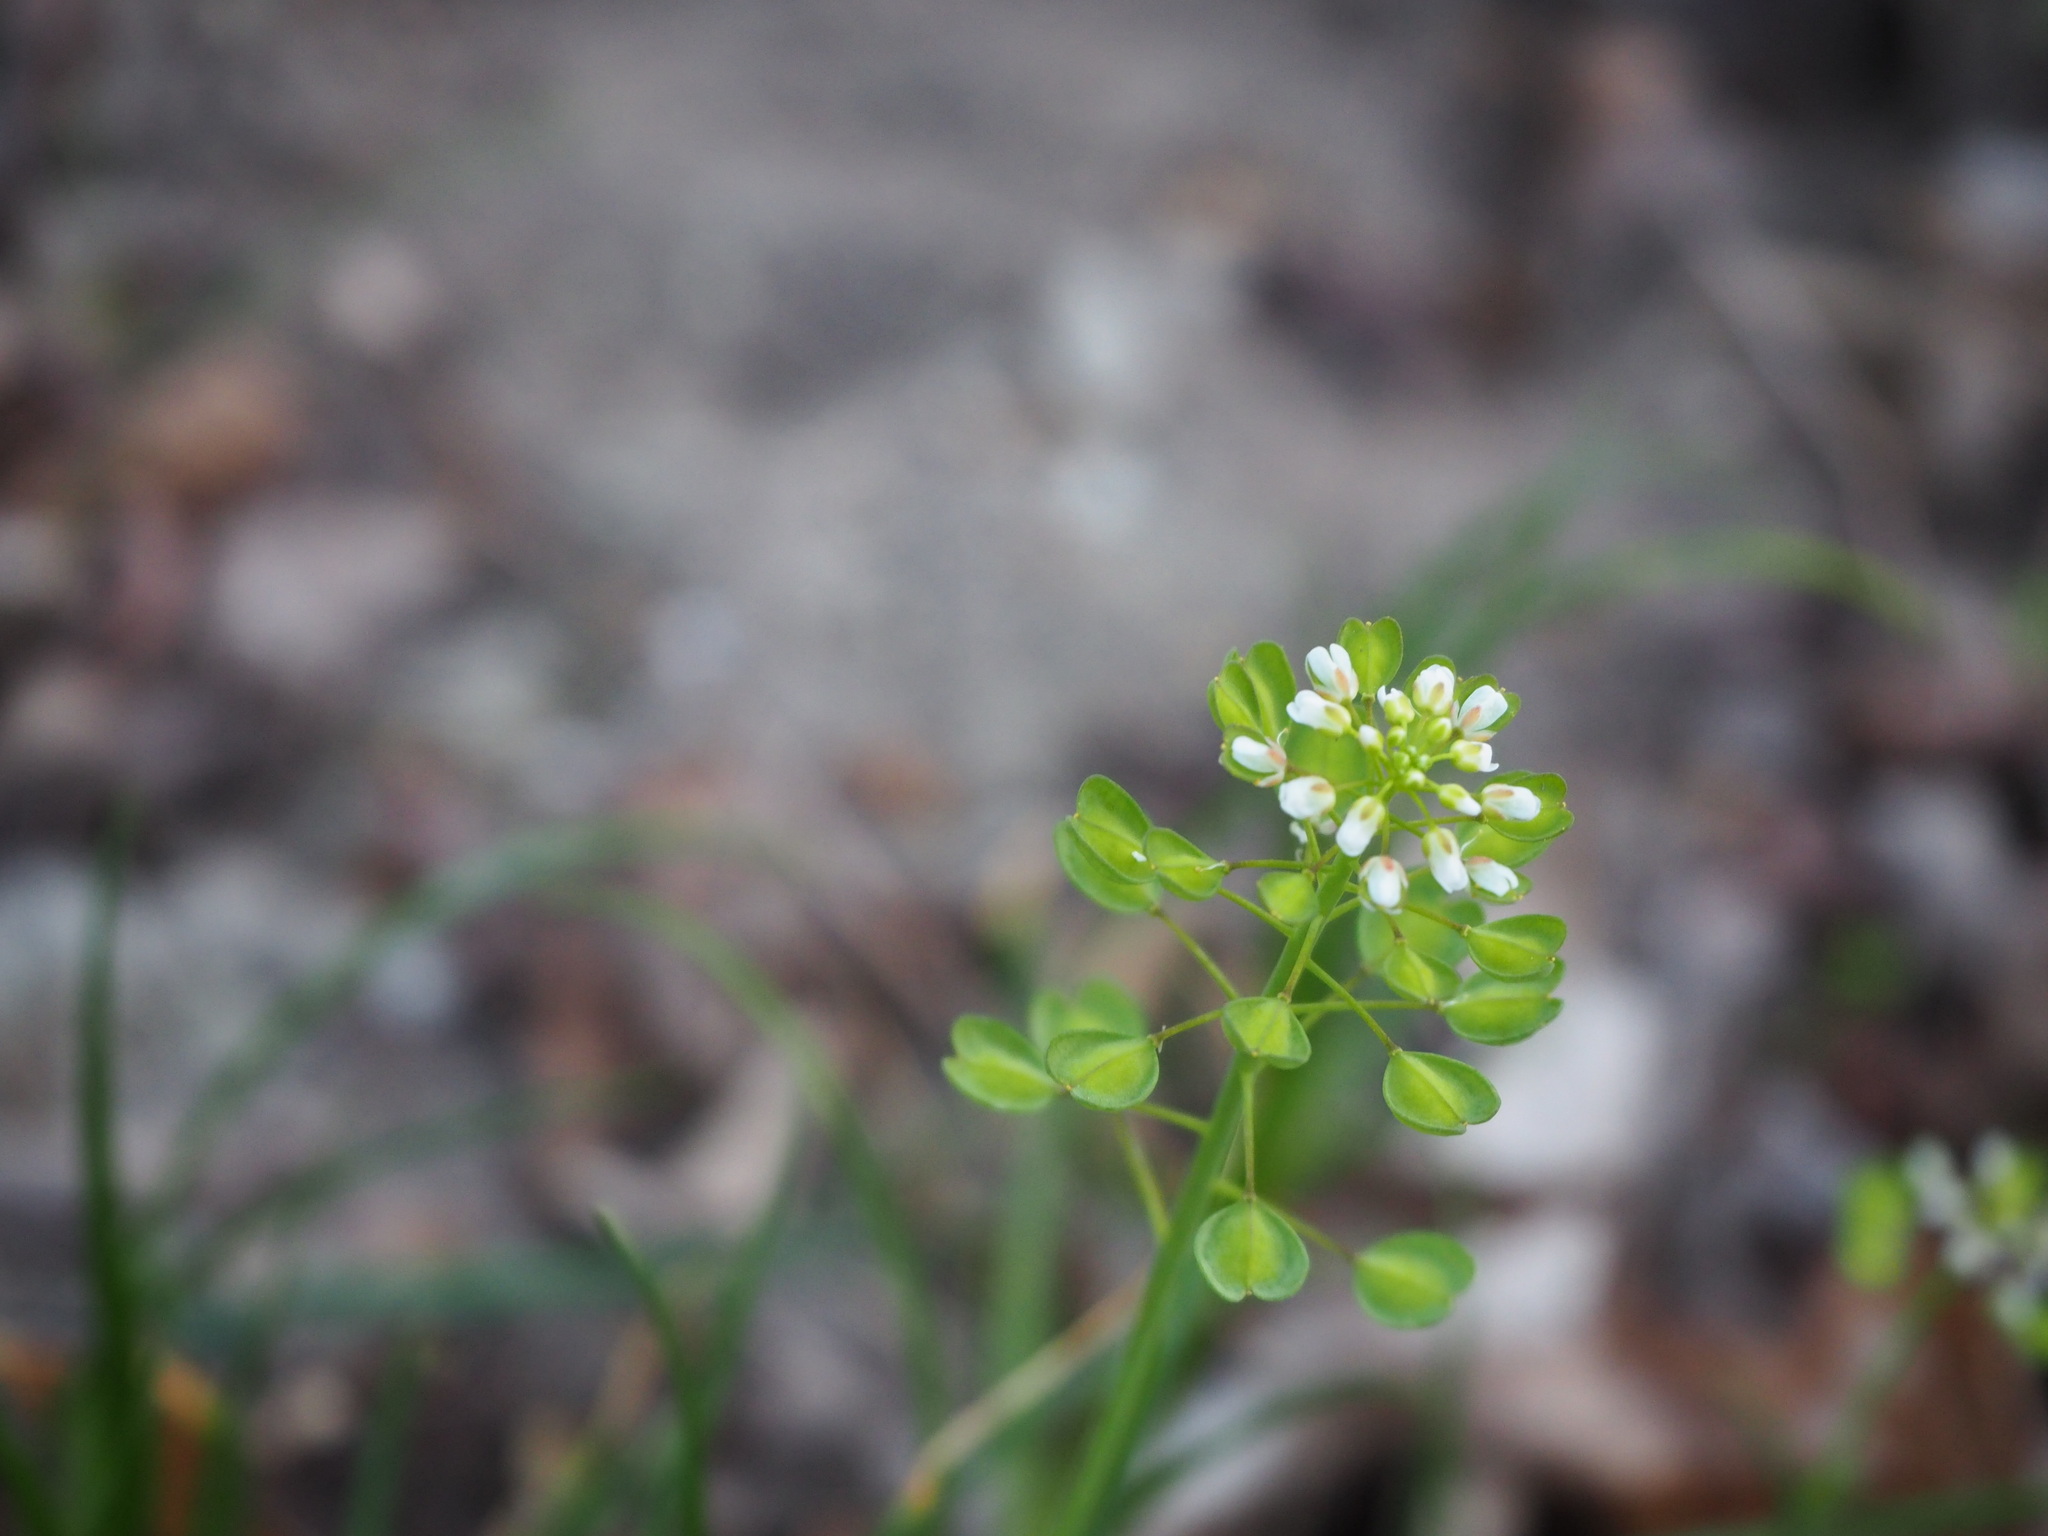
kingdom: Plantae
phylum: Tracheophyta
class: Magnoliopsida
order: Brassicales
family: Brassicaceae
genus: Capsella
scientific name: Capsella bursa-pastoris
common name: Shepherd's purse
